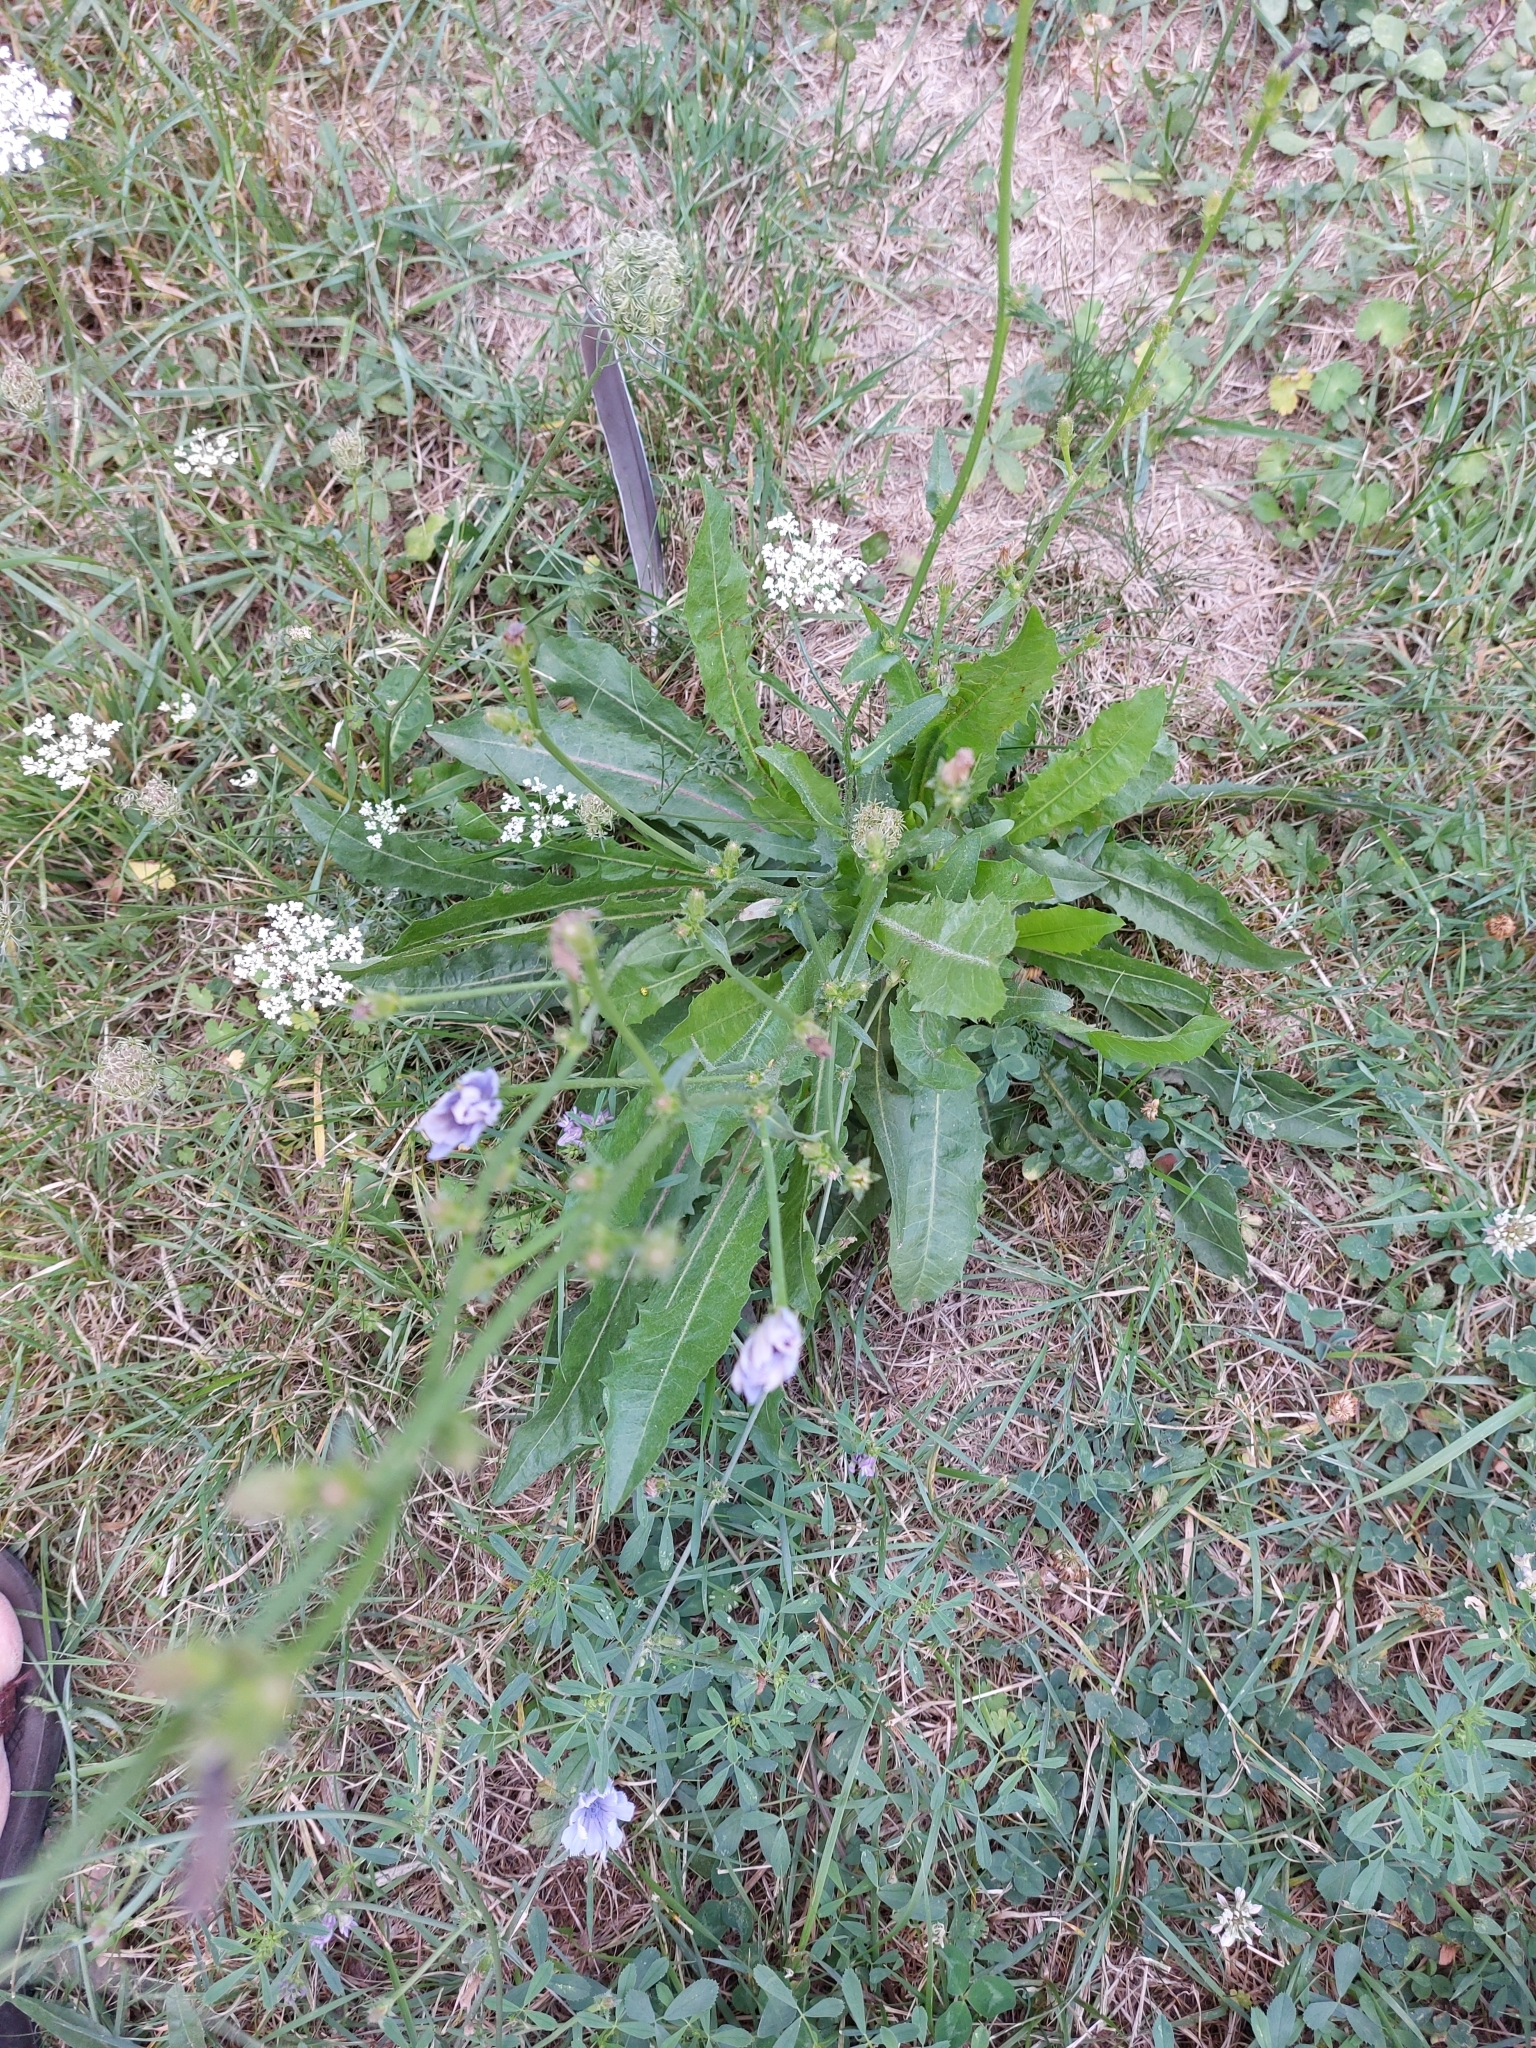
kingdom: Plantae
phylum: Tracheophyta
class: Magnoliopsida
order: Asterales
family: Asteraceae
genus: Cichorium
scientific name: Cichorium intybus
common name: Chicory
